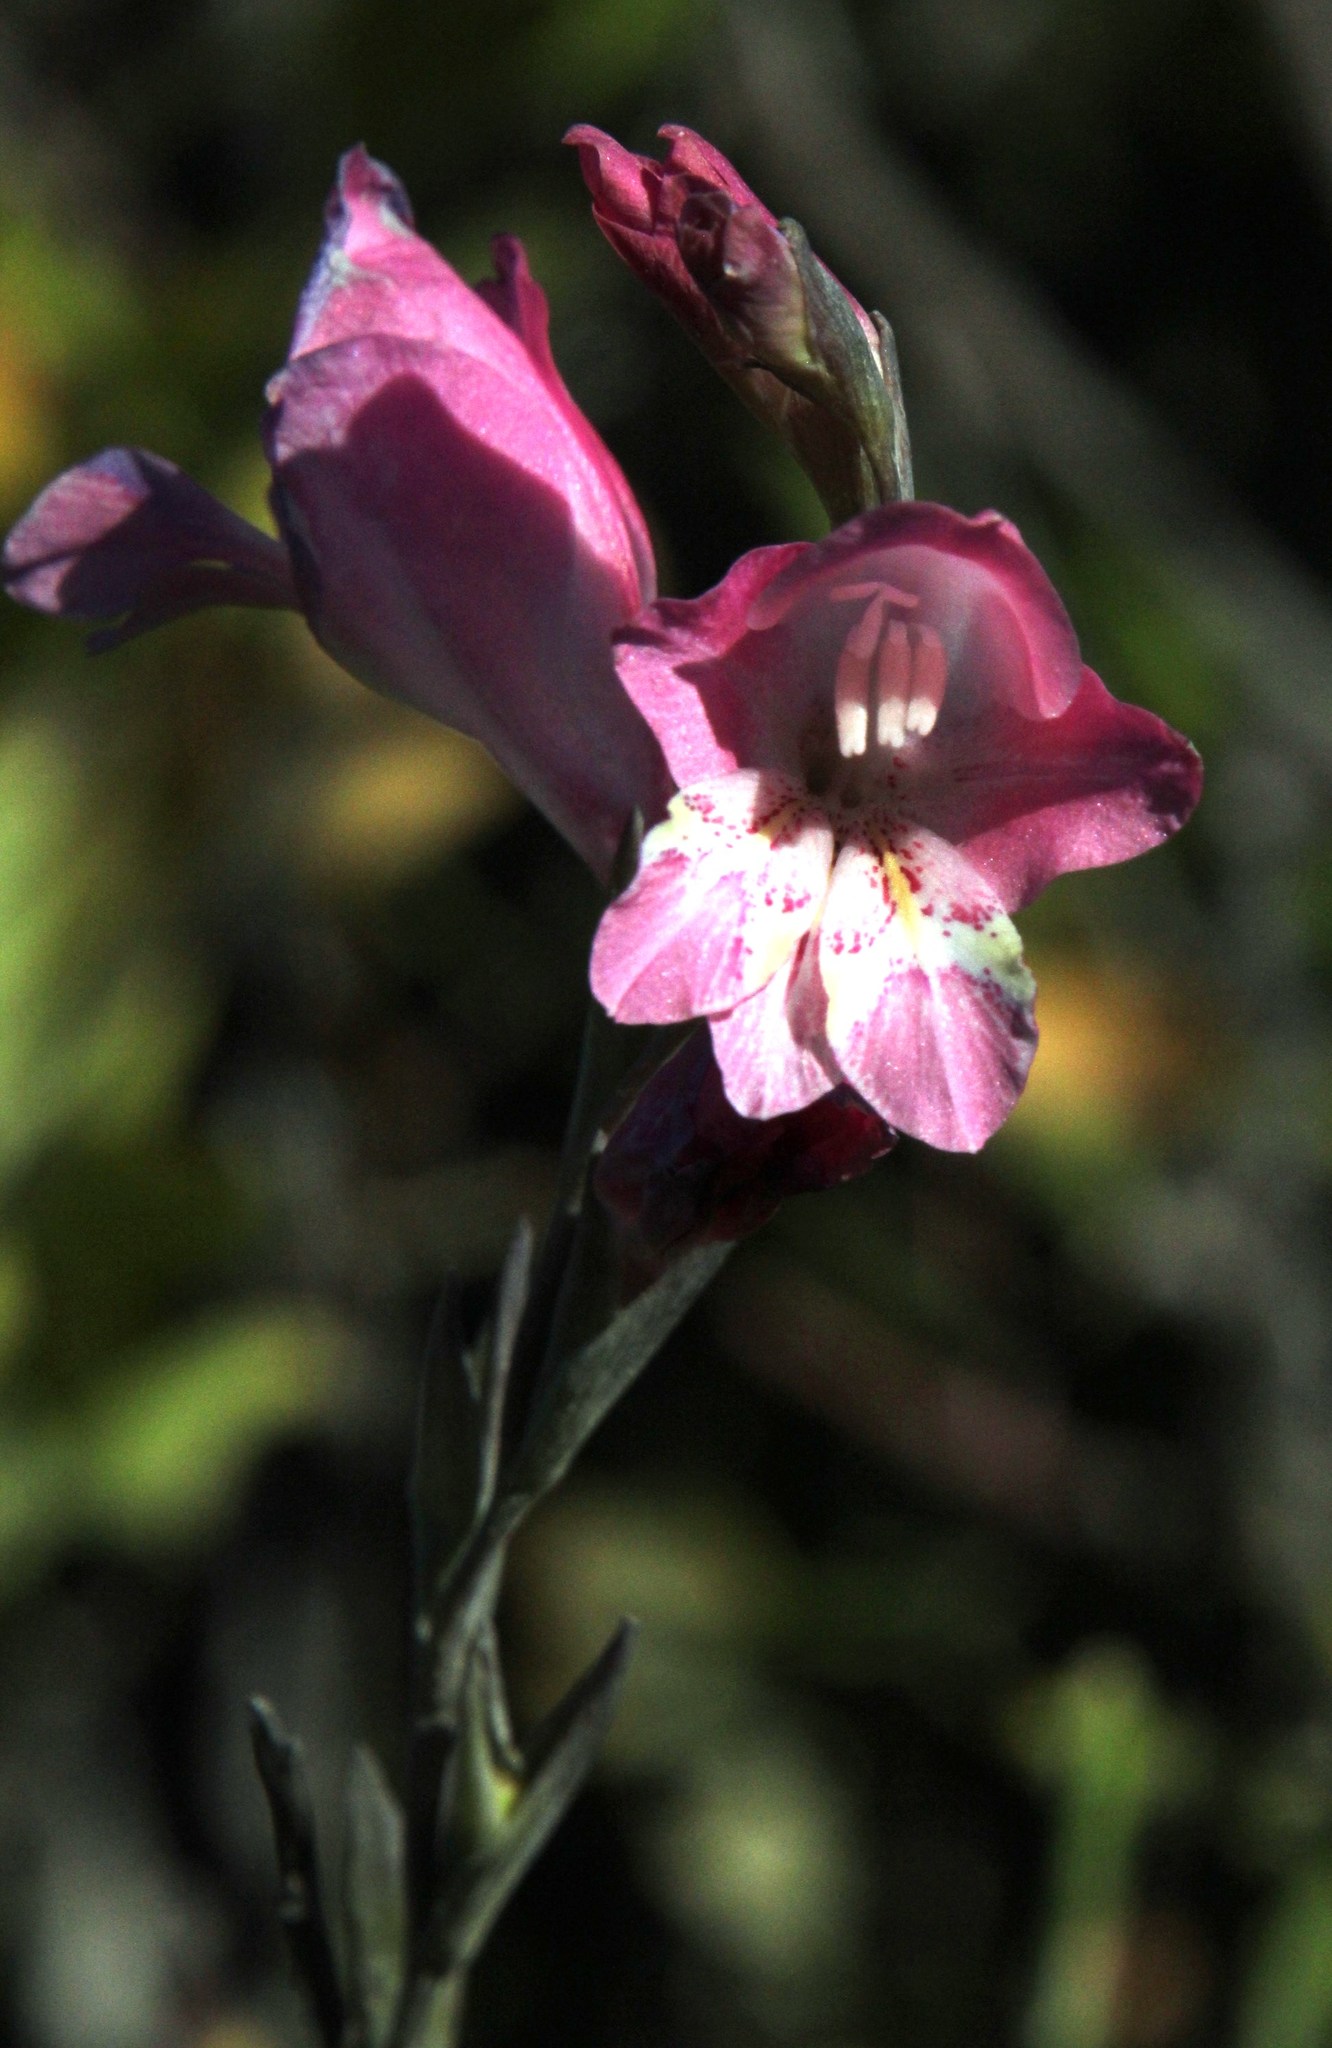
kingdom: Plantae
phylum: Tracheophyta
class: Liliopsida
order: Asparagales
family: Iridaceae
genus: Gladiolus
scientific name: Gladiolus brevifolius
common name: March pypie
